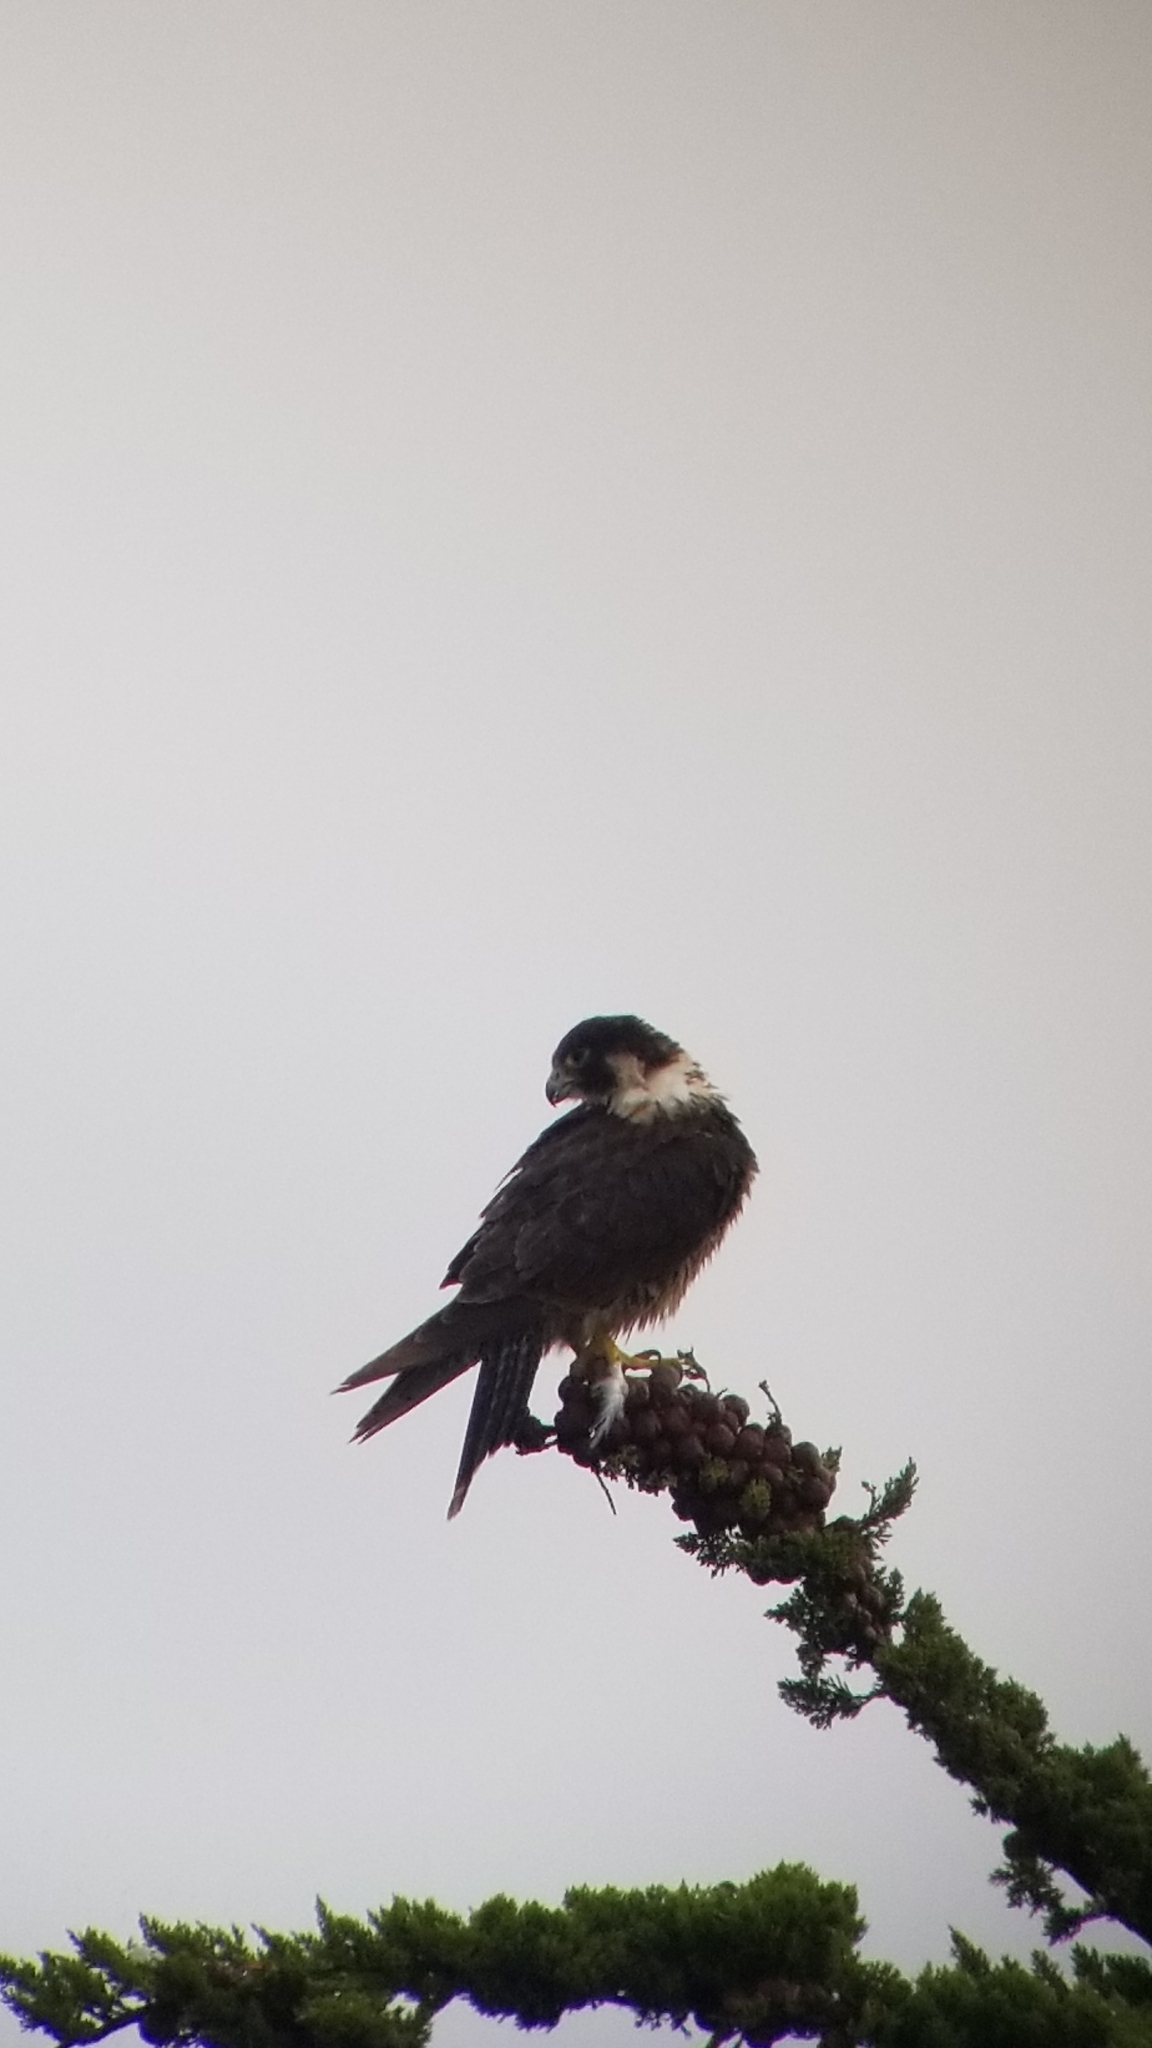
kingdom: Animalia
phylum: Chordata
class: Aves
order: Falconiformes
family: Falconidae
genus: Falco
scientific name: Falco peregrinus
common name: Peregrine falcon
